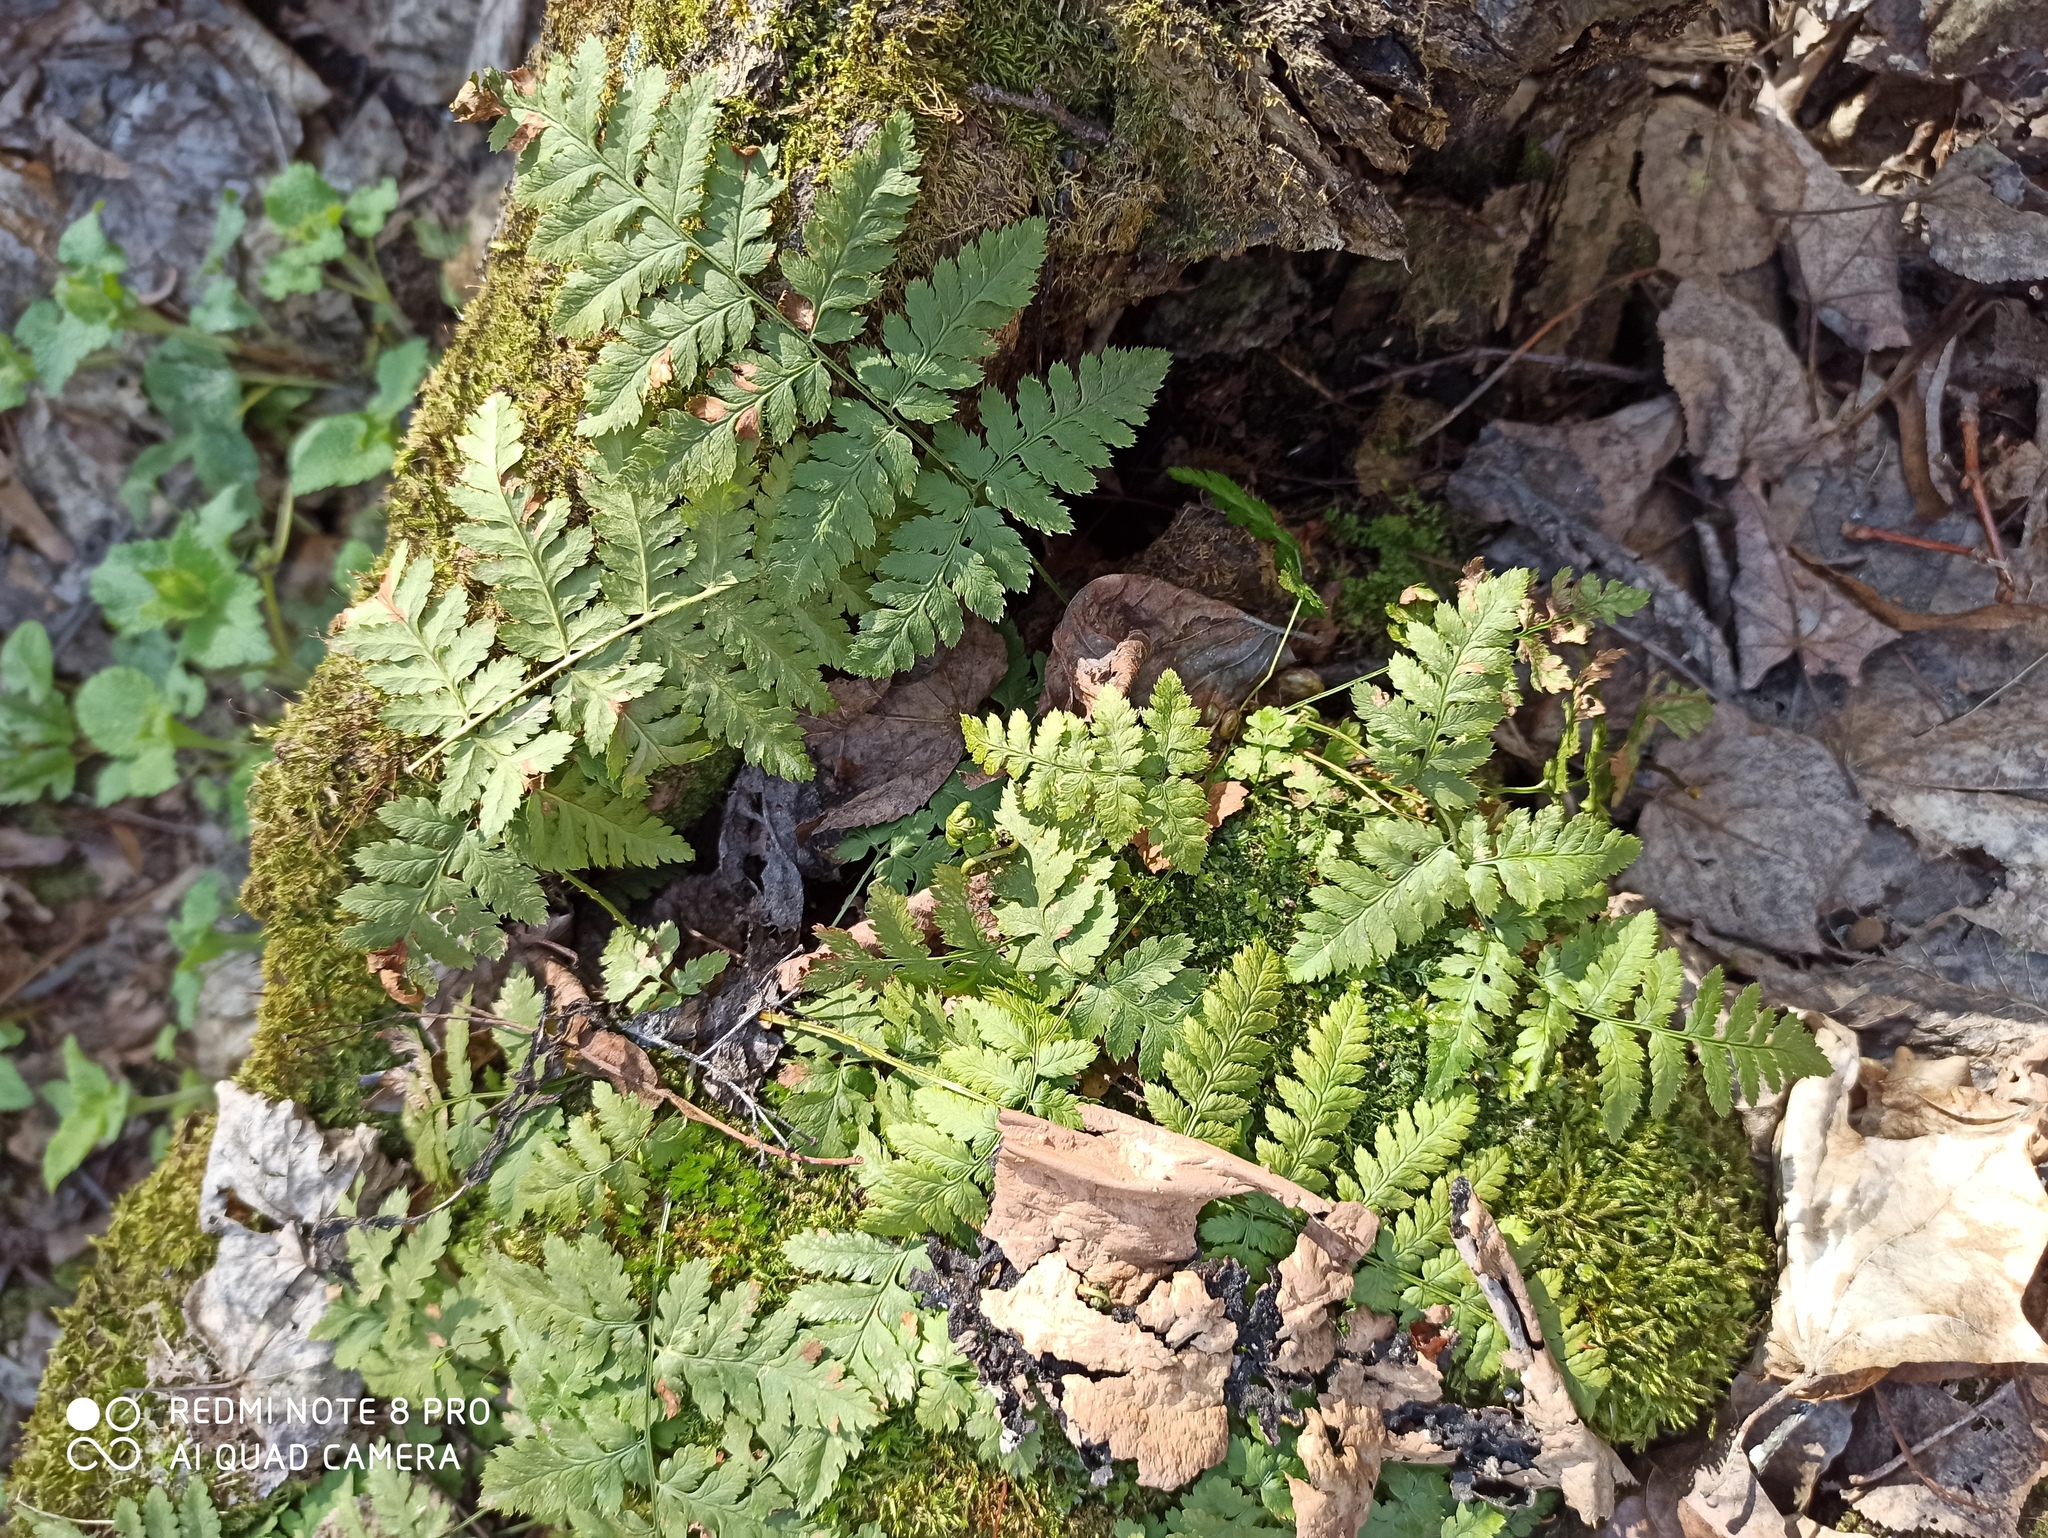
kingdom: Plantae
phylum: Tracheophyta
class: Polypodiopsida
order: Polypodiales
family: Dryopteridaceae
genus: Dryopteris
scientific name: Dryopteris carthusiana
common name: Narrow buckler-fern
